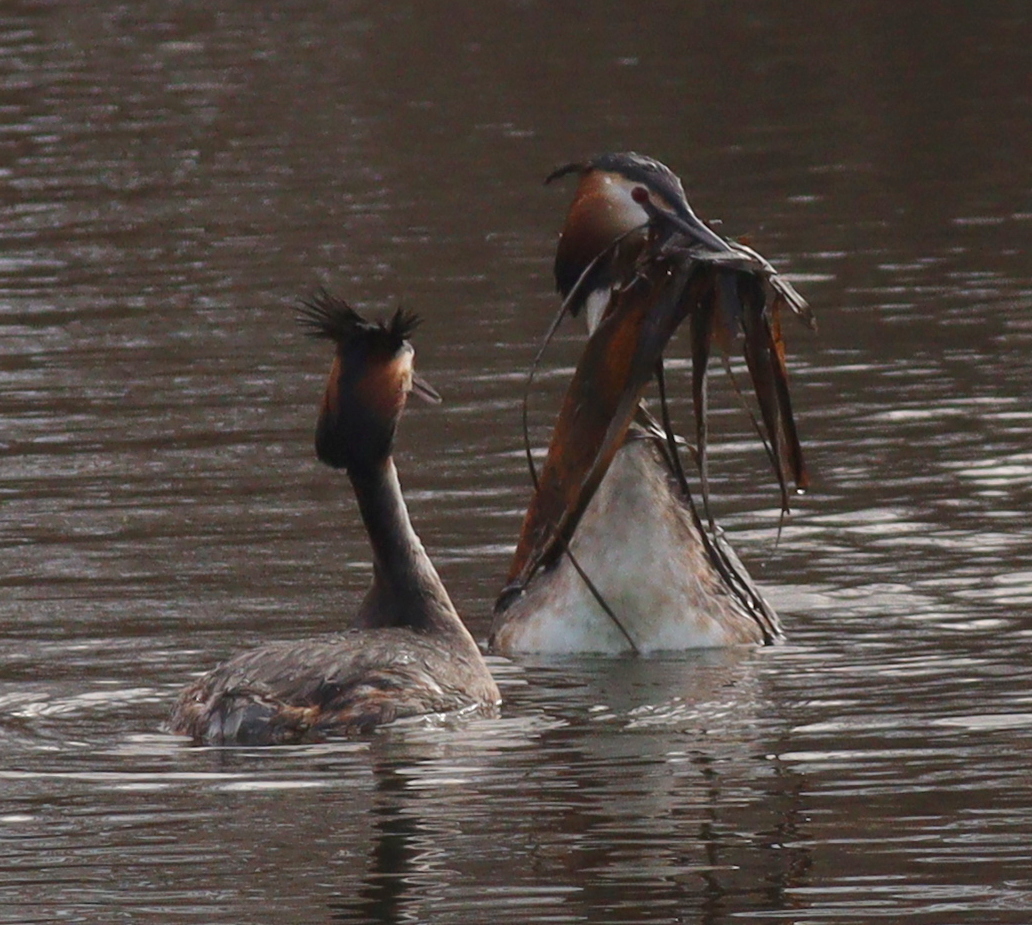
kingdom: Animalia
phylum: Chordata
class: Aves
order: Podicipediformes
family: Podicipedidae
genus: Podiceps
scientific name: Podiceps cristatus
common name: Great crested grebe
